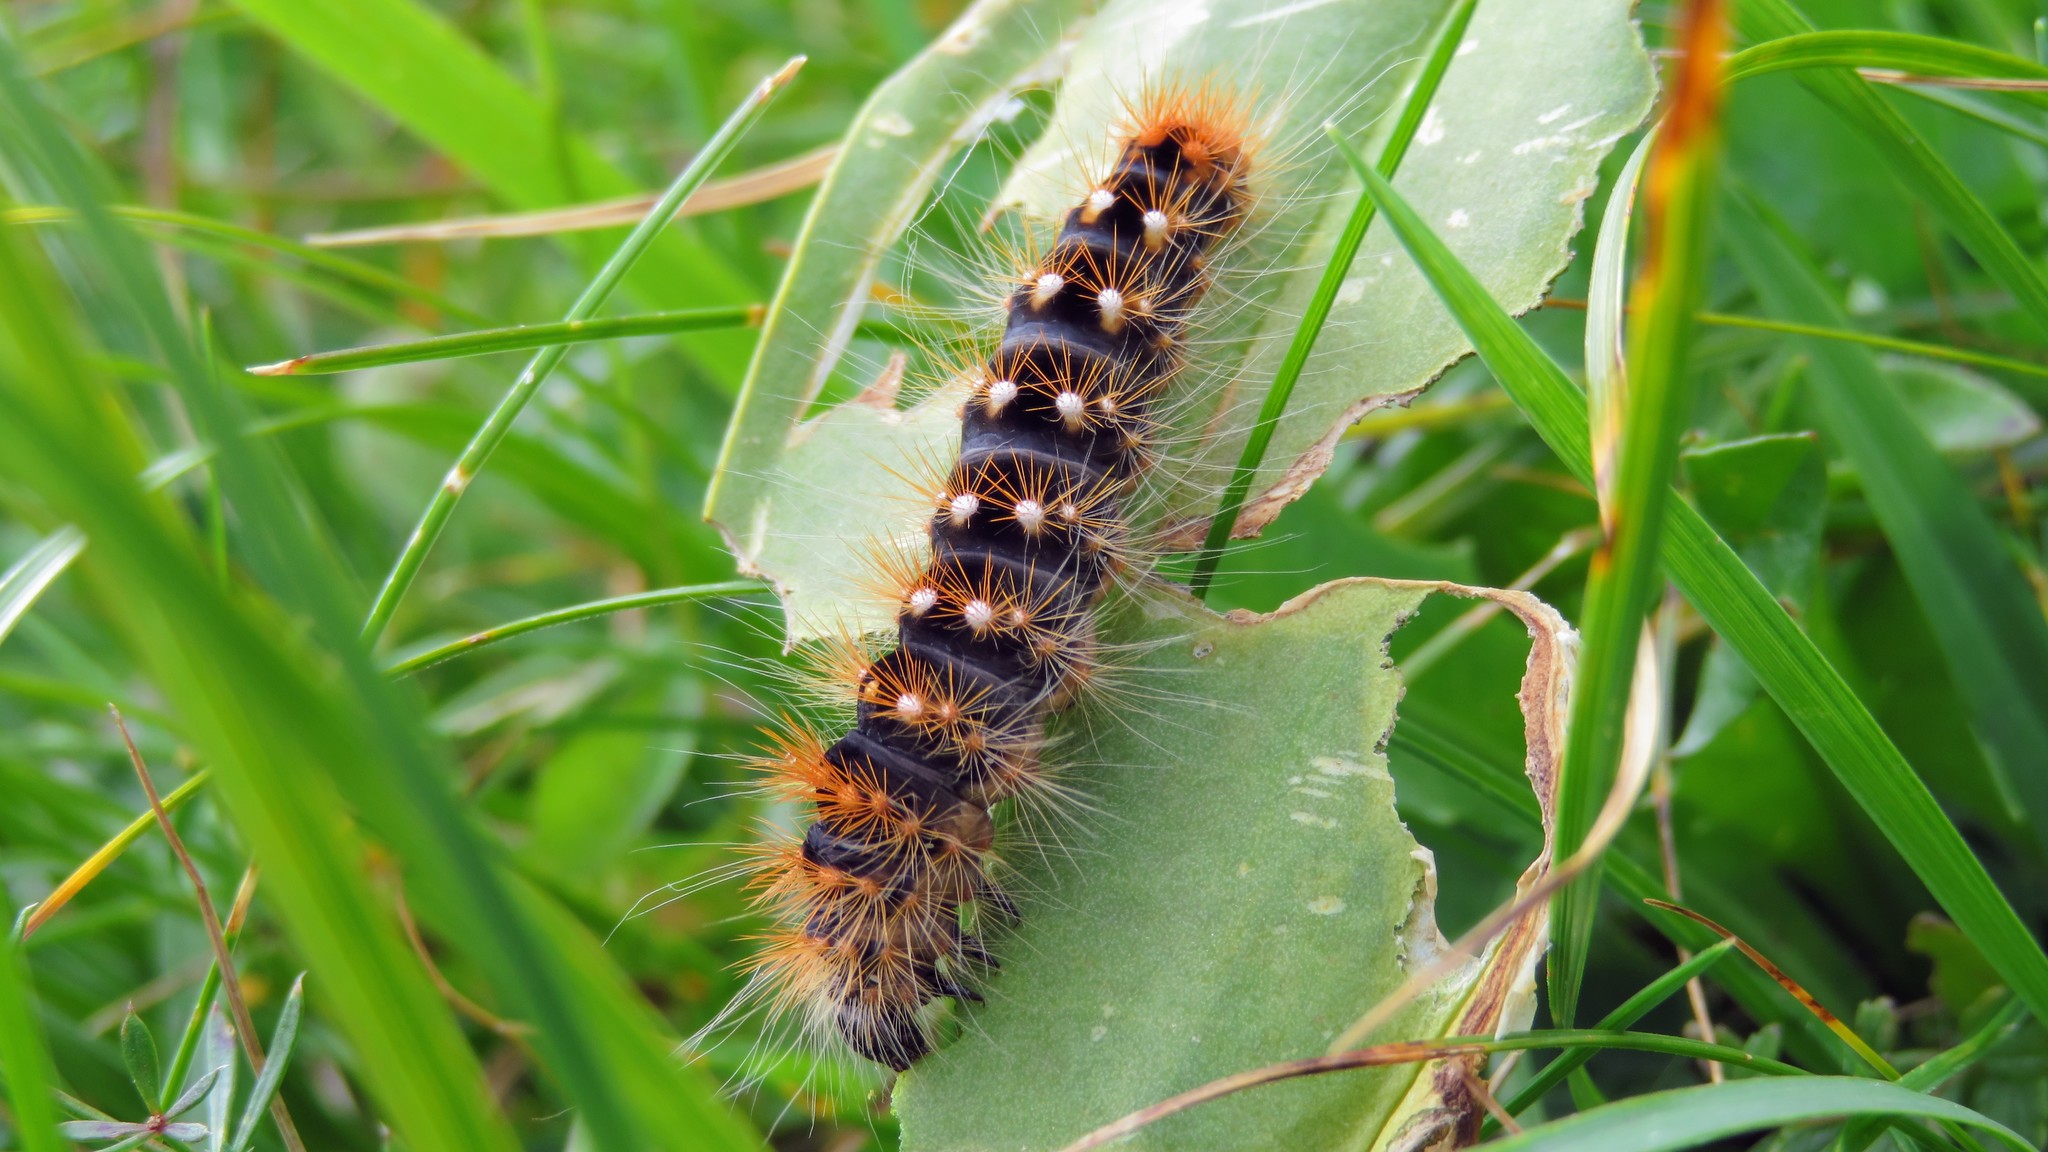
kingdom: Animalia
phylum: Arthropoda
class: Insecta
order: Lepidoptera
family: Noctuidae
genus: Acronicta
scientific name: Acronicta auricoma
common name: Scarce dagger
